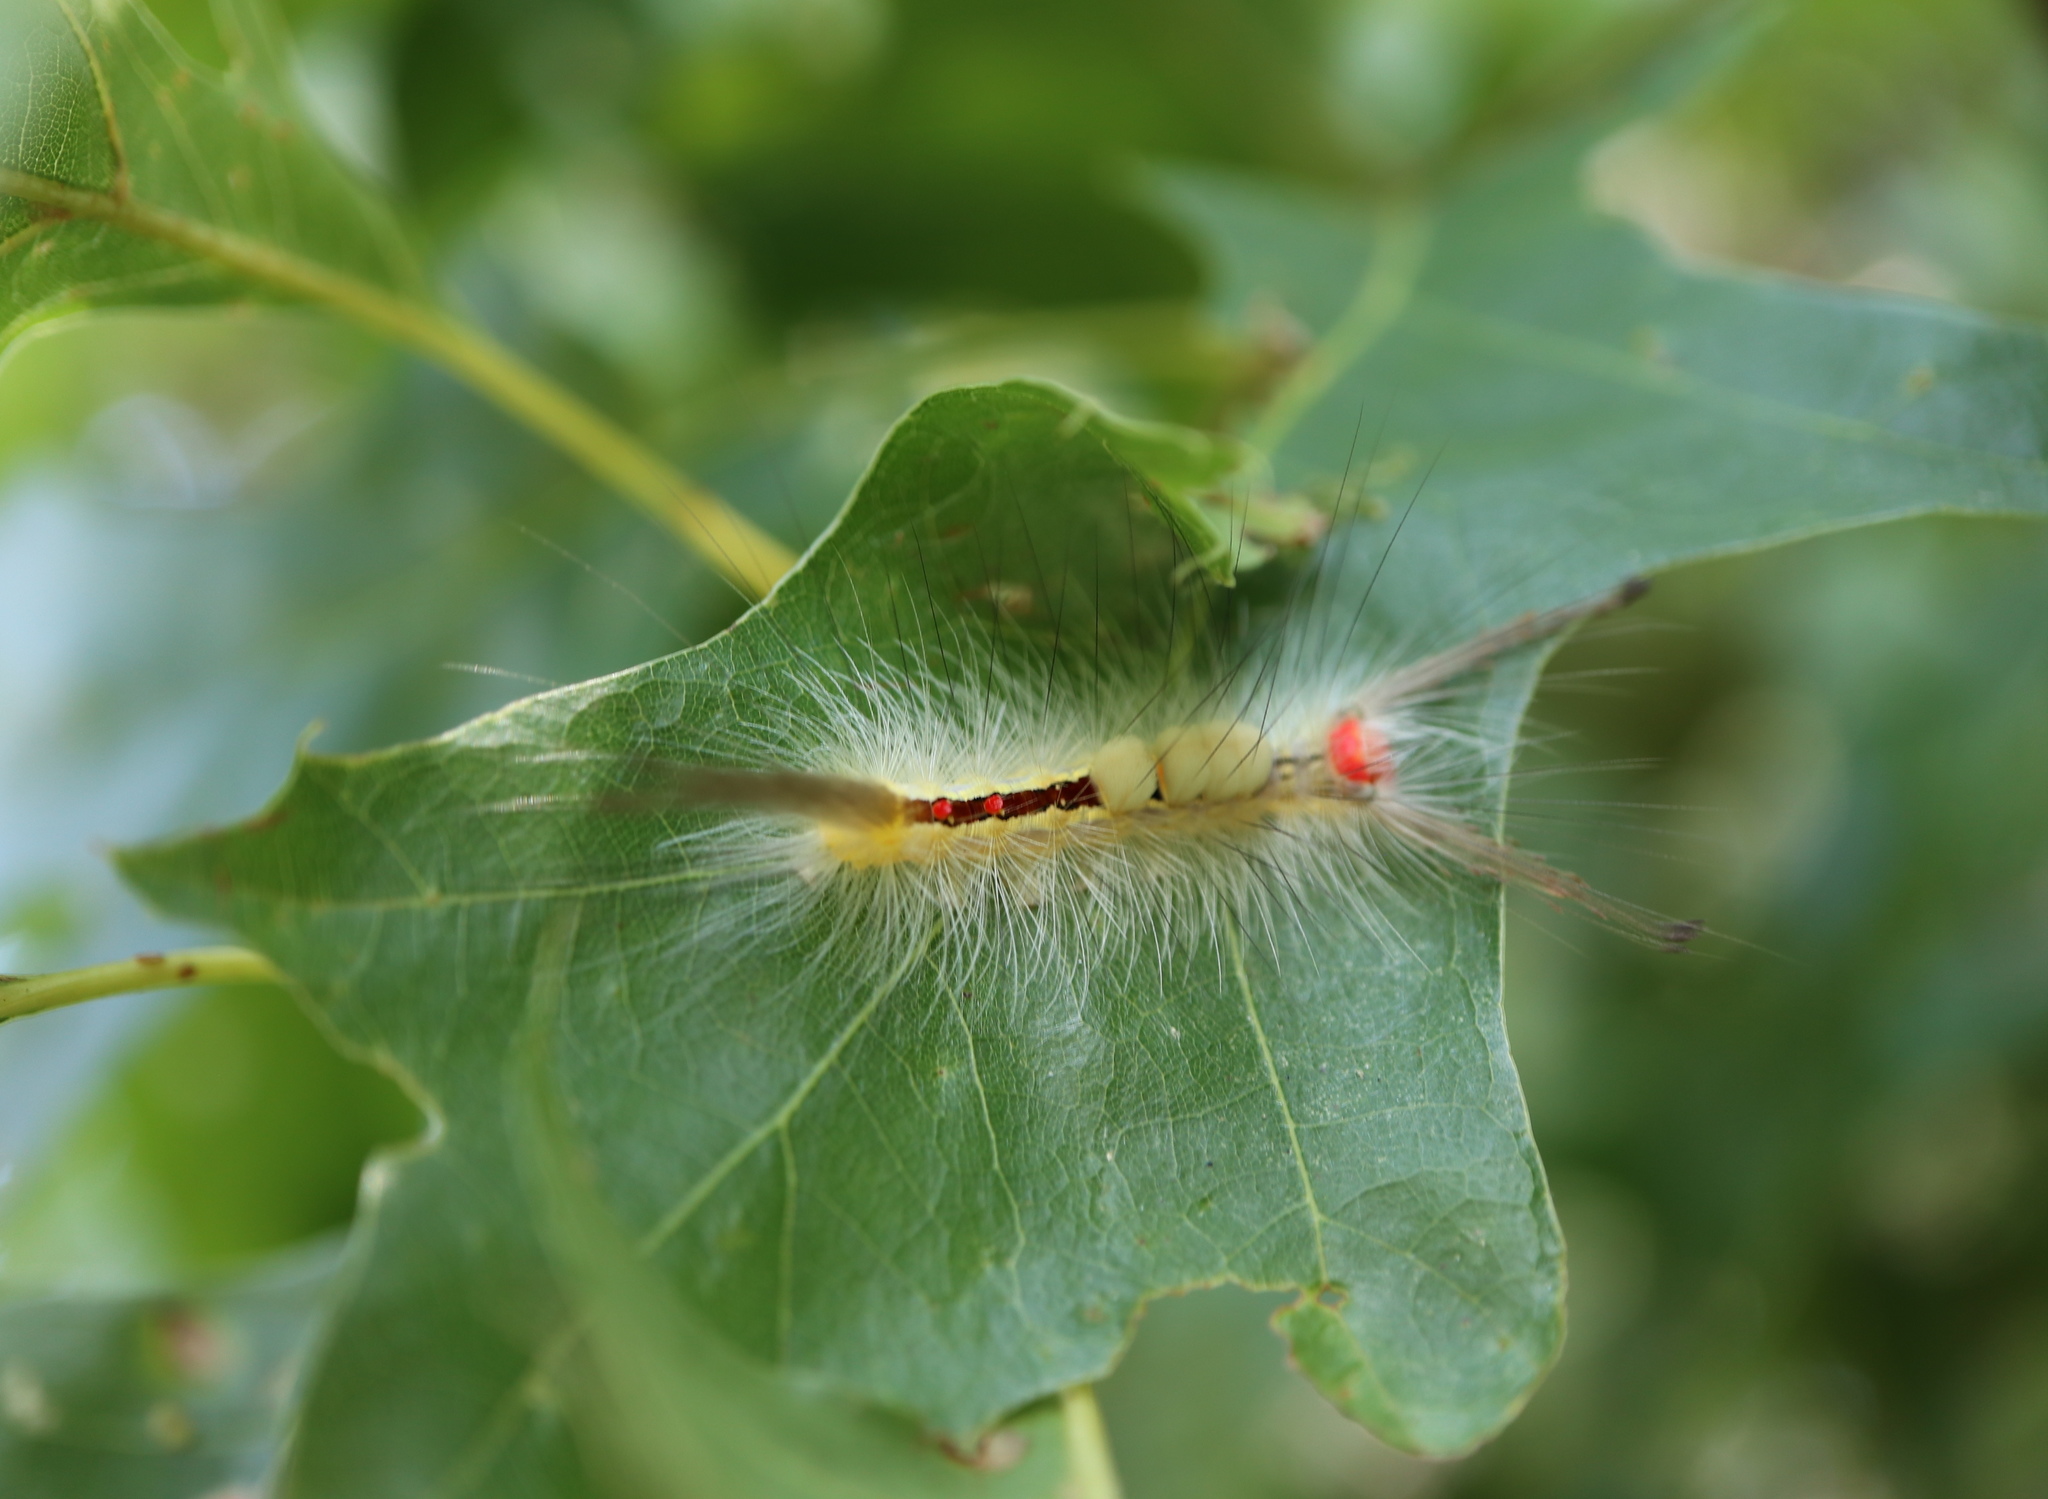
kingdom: Animalia
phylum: Arthropoda
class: Insecta
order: Lepidoptera
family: Erebidae
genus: Orgyia
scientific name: Orgyia leucostigma
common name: White-marked tussock moth
